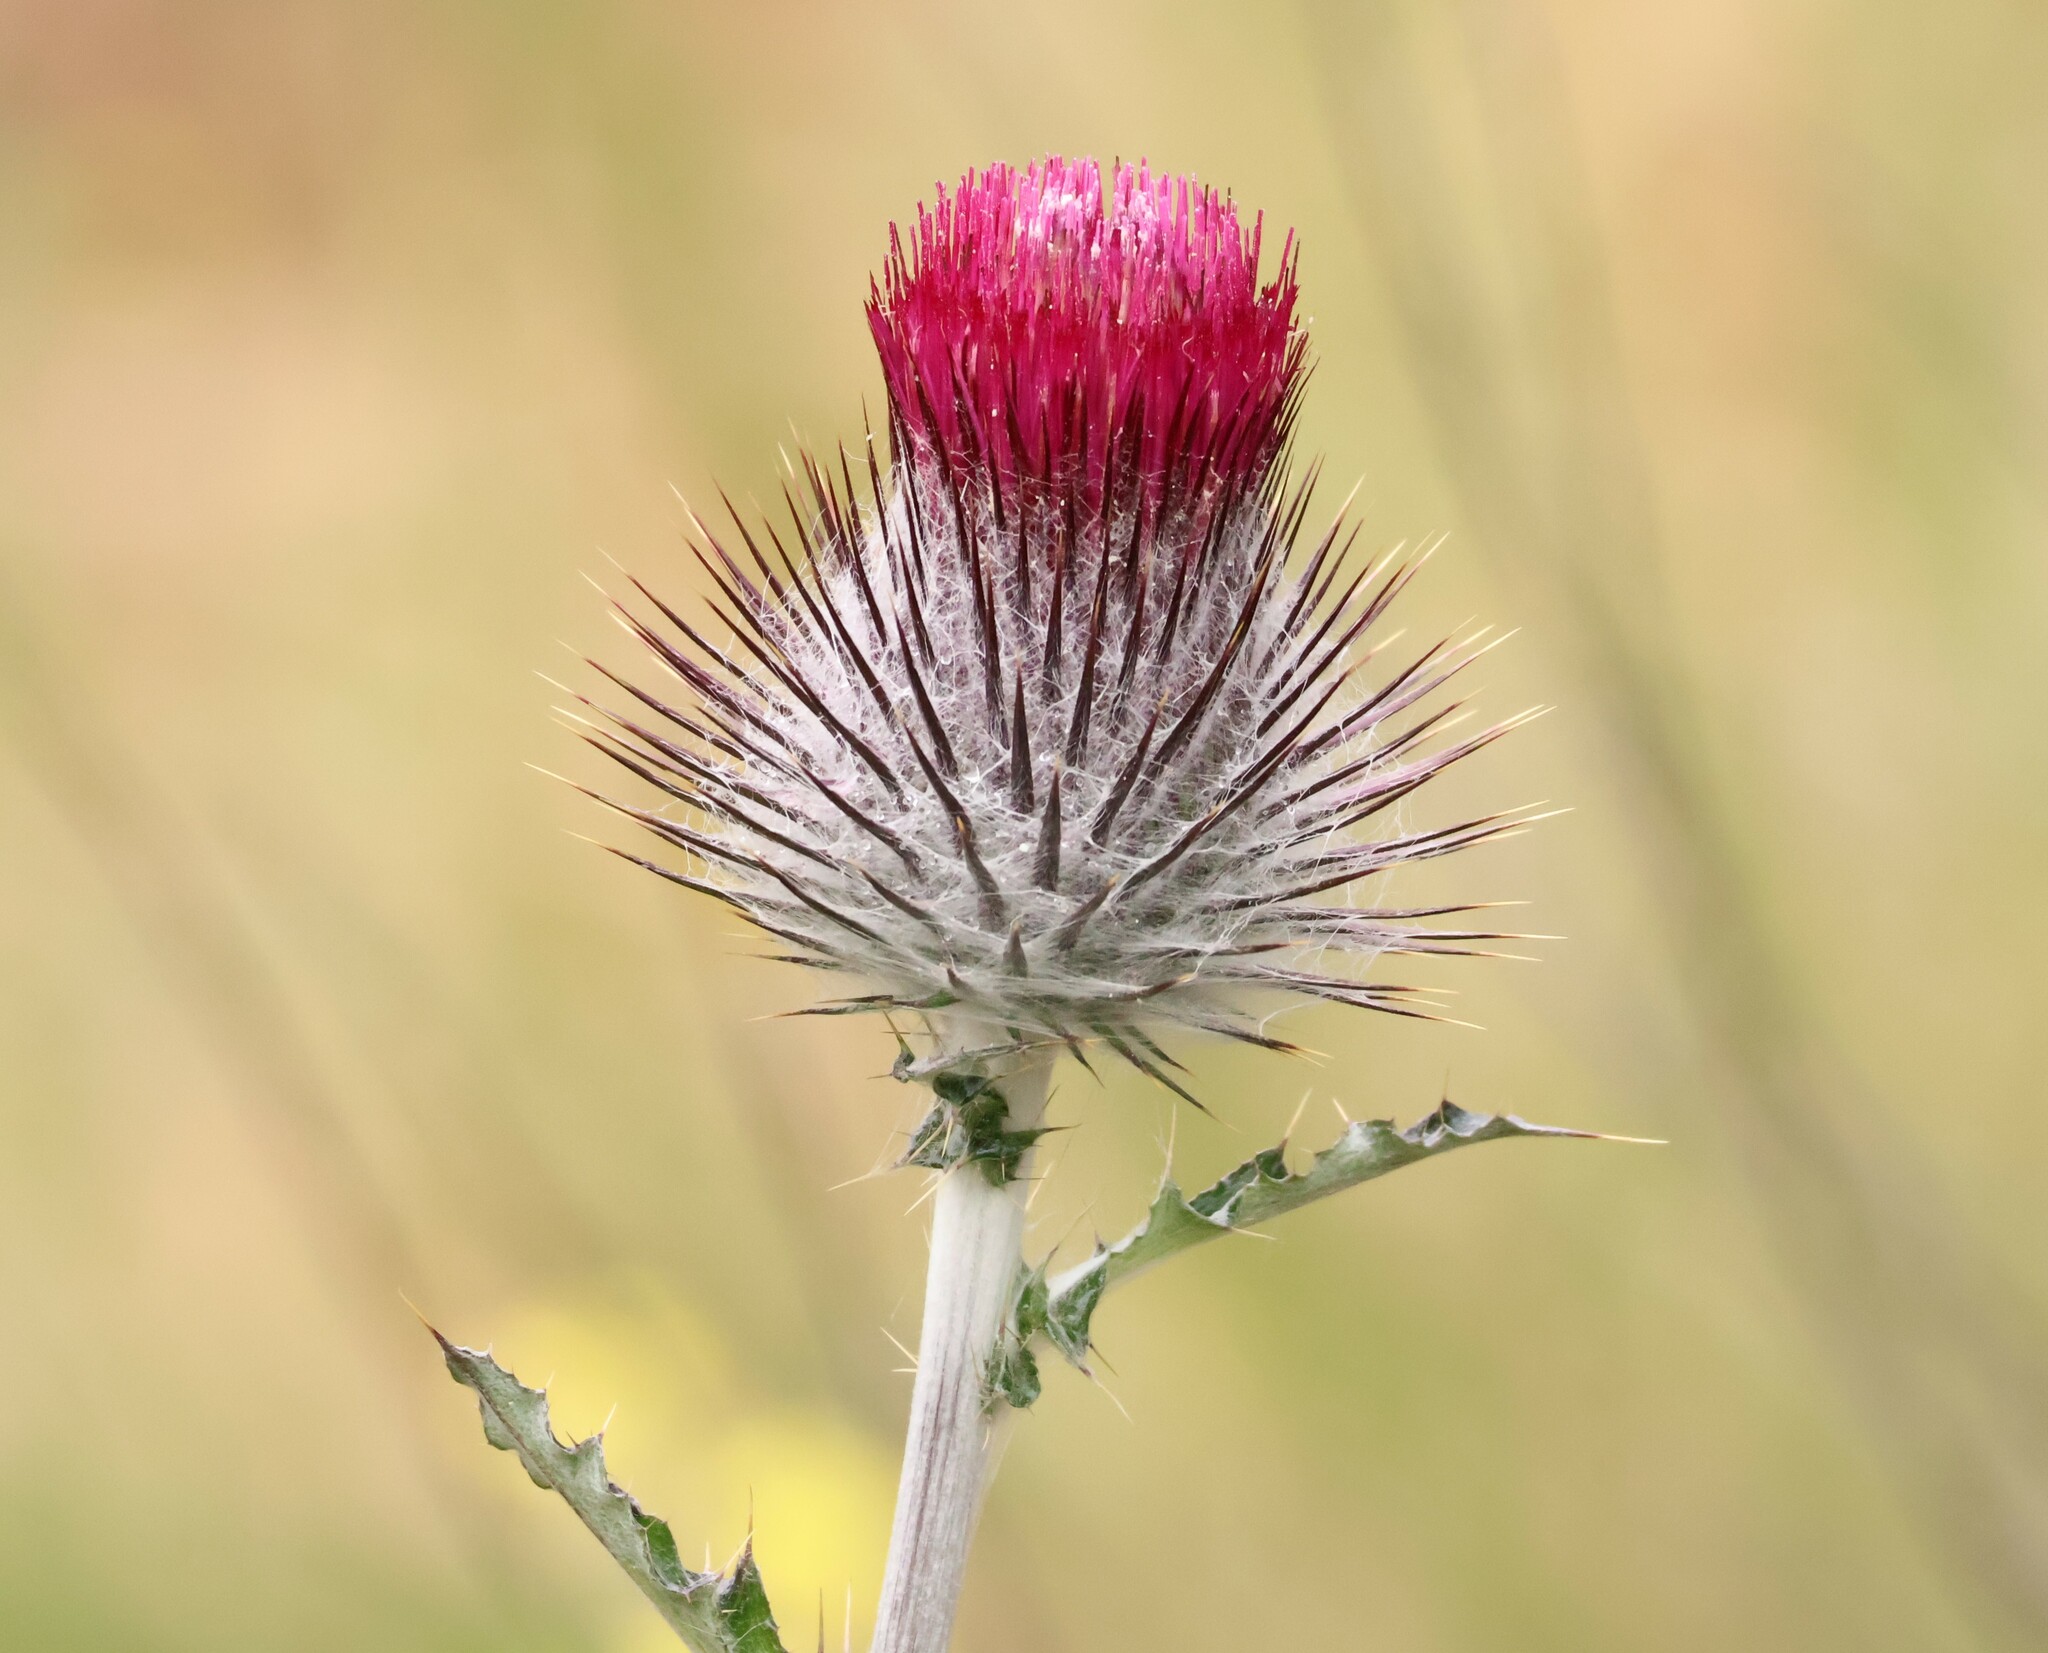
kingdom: Plantae
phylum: Tracheophyta
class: Magnoliopsida
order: Asterales
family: Asteraceae
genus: Cirsium
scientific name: Cirsium occidentale
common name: Western thistle
